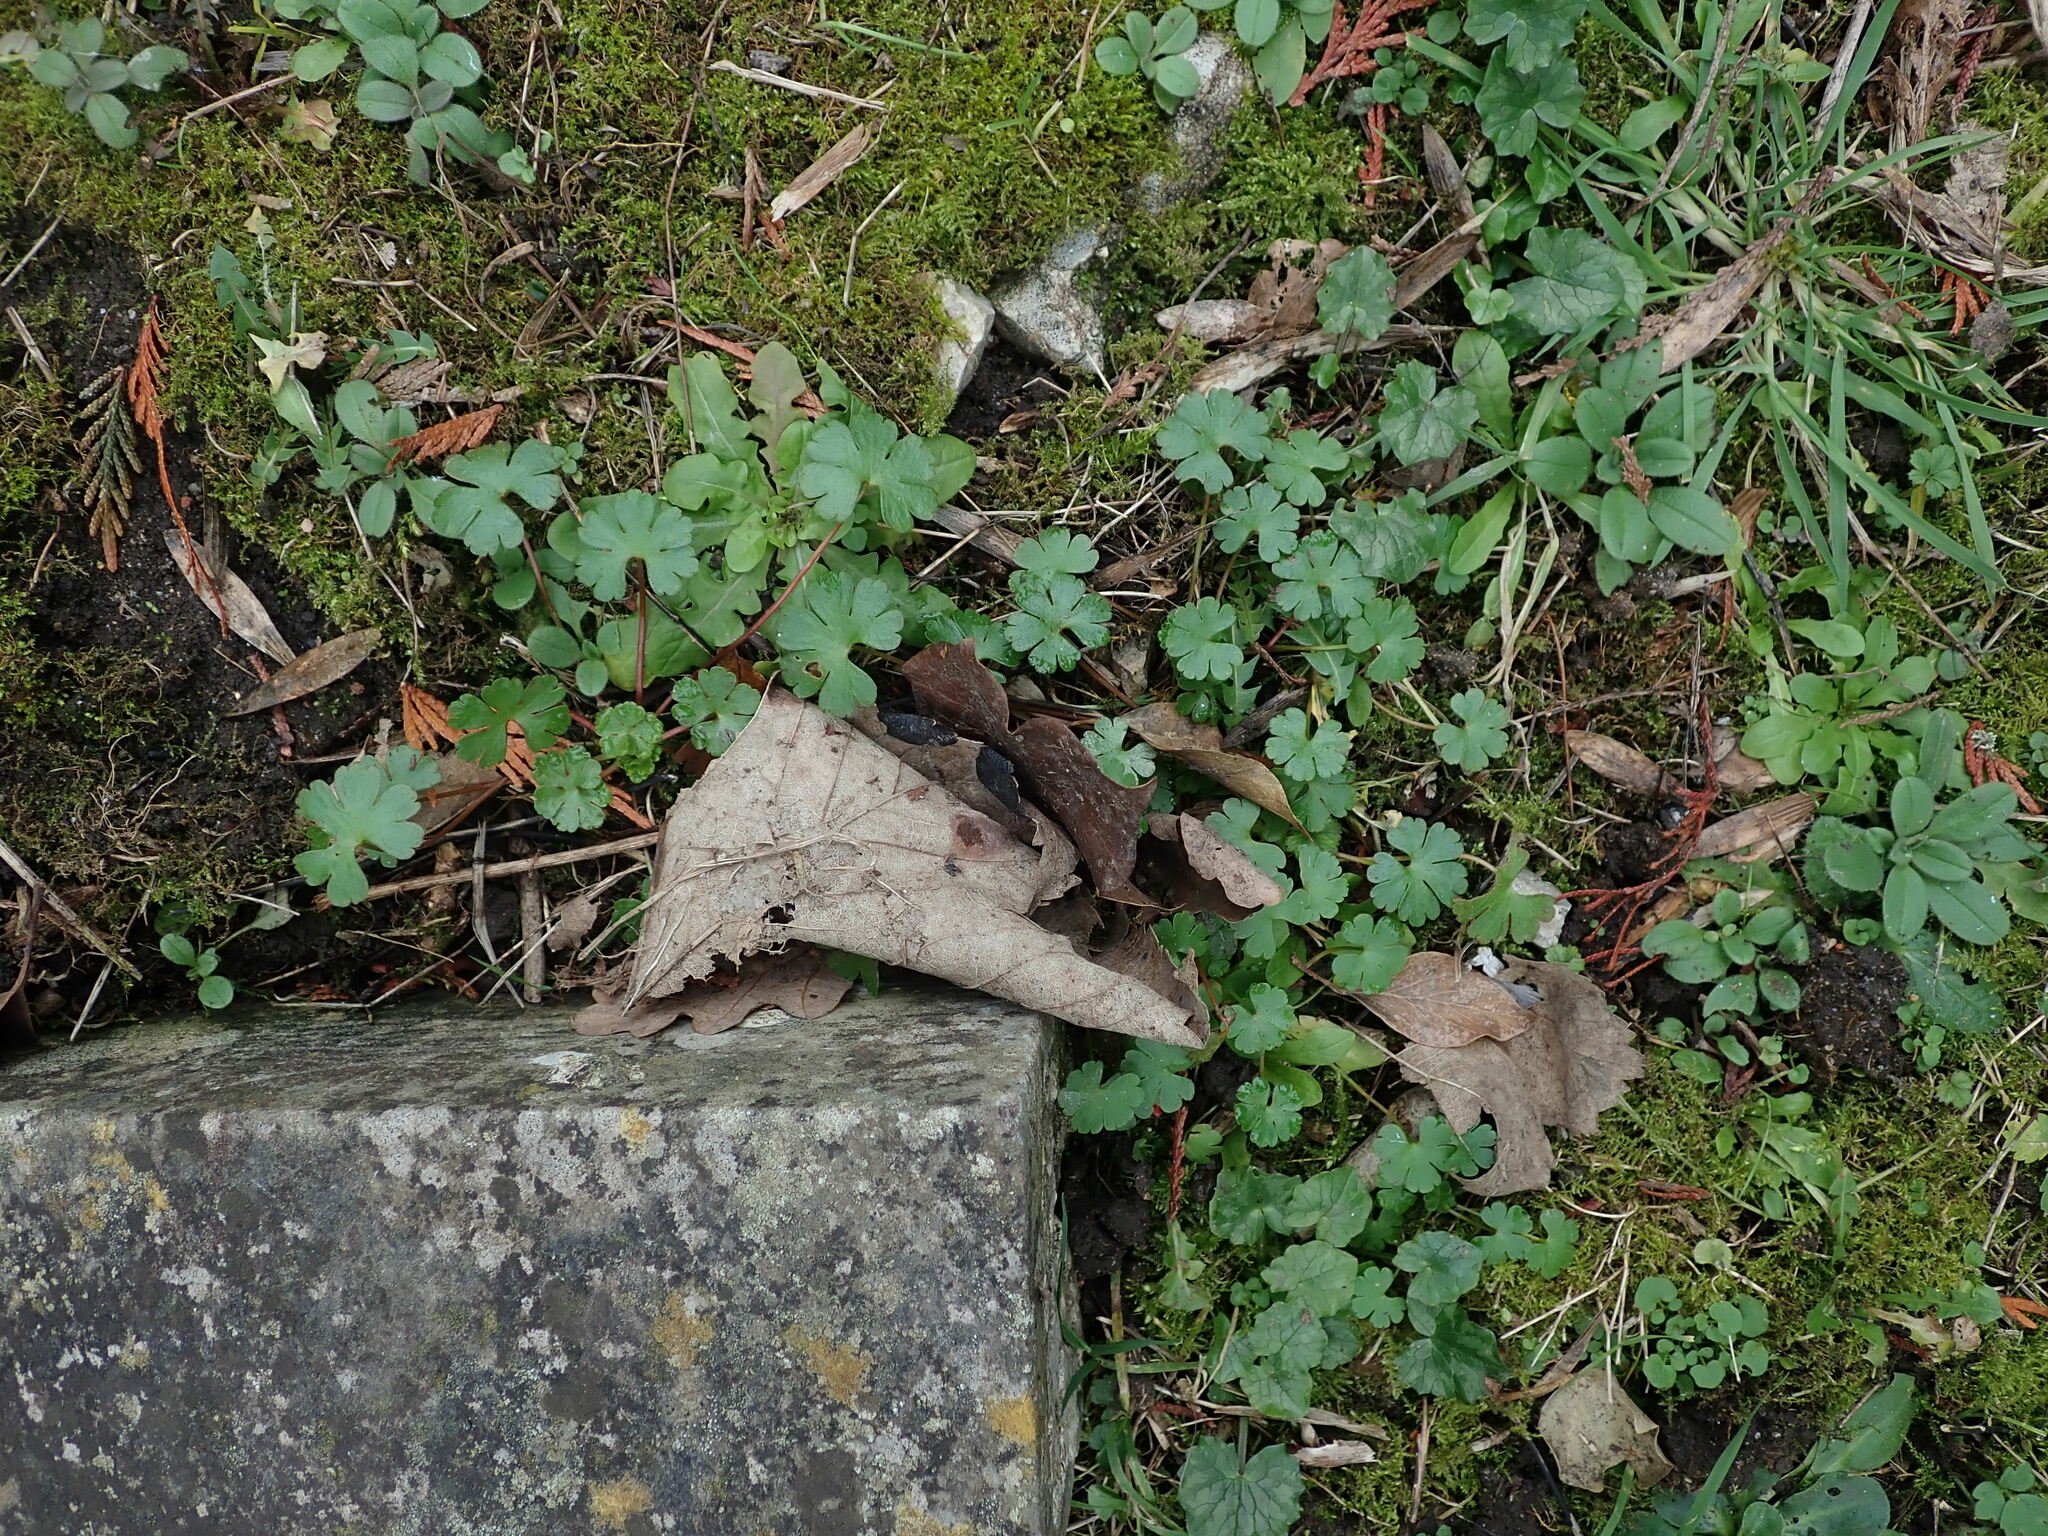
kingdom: Plantae
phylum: Tracheophyta
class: Magnoliopsida
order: Geraniales
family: Geraniaceae
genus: Geranium
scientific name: Geranium lucidum
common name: Shining crane's-bill
